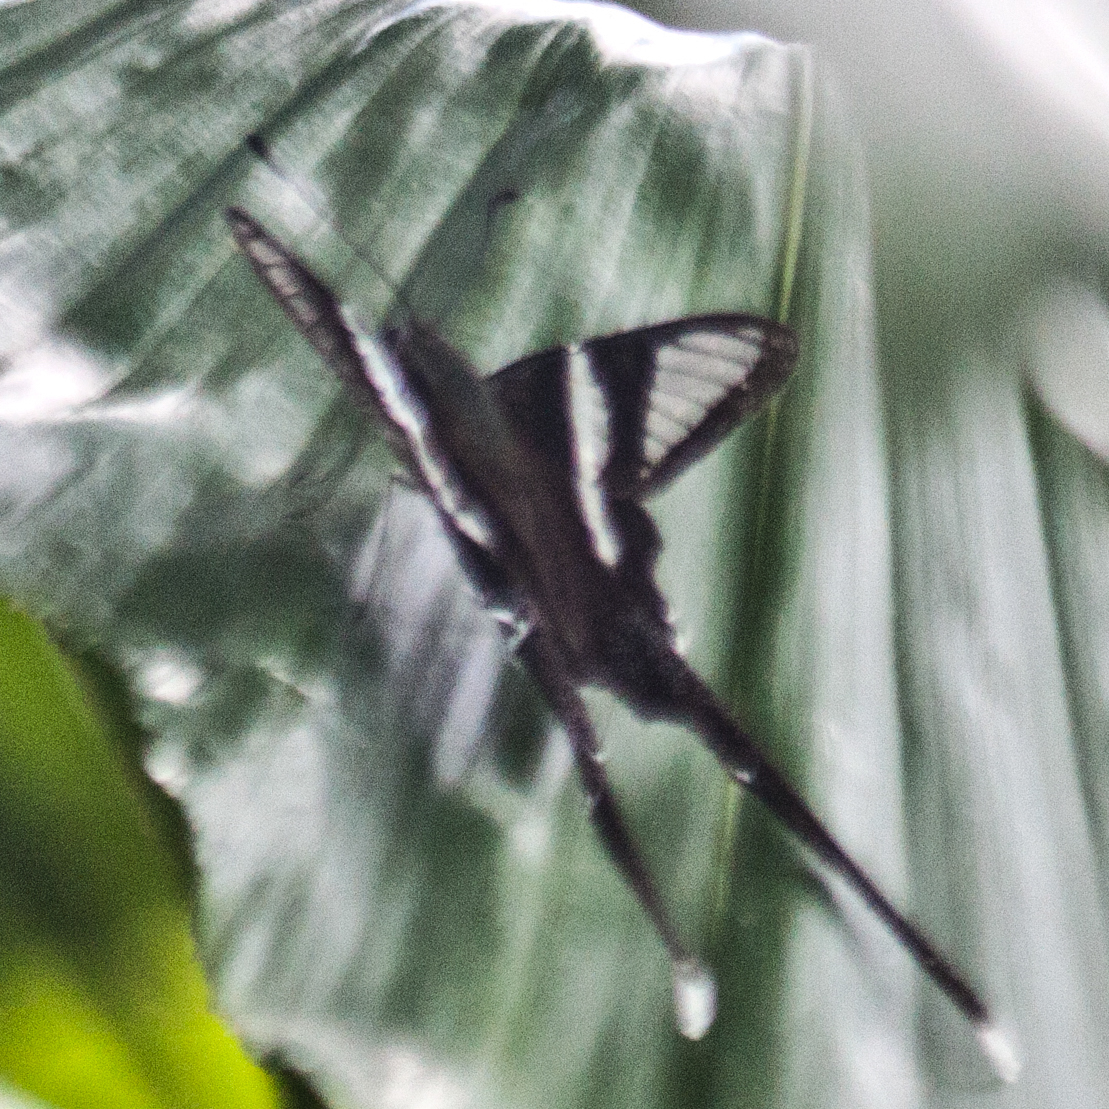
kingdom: Animalia
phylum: Arthropoda
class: Insecta
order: Lepidoptera
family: Papilionidae
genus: Lamproptera
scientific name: Lamproptera curius
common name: White dragontail
